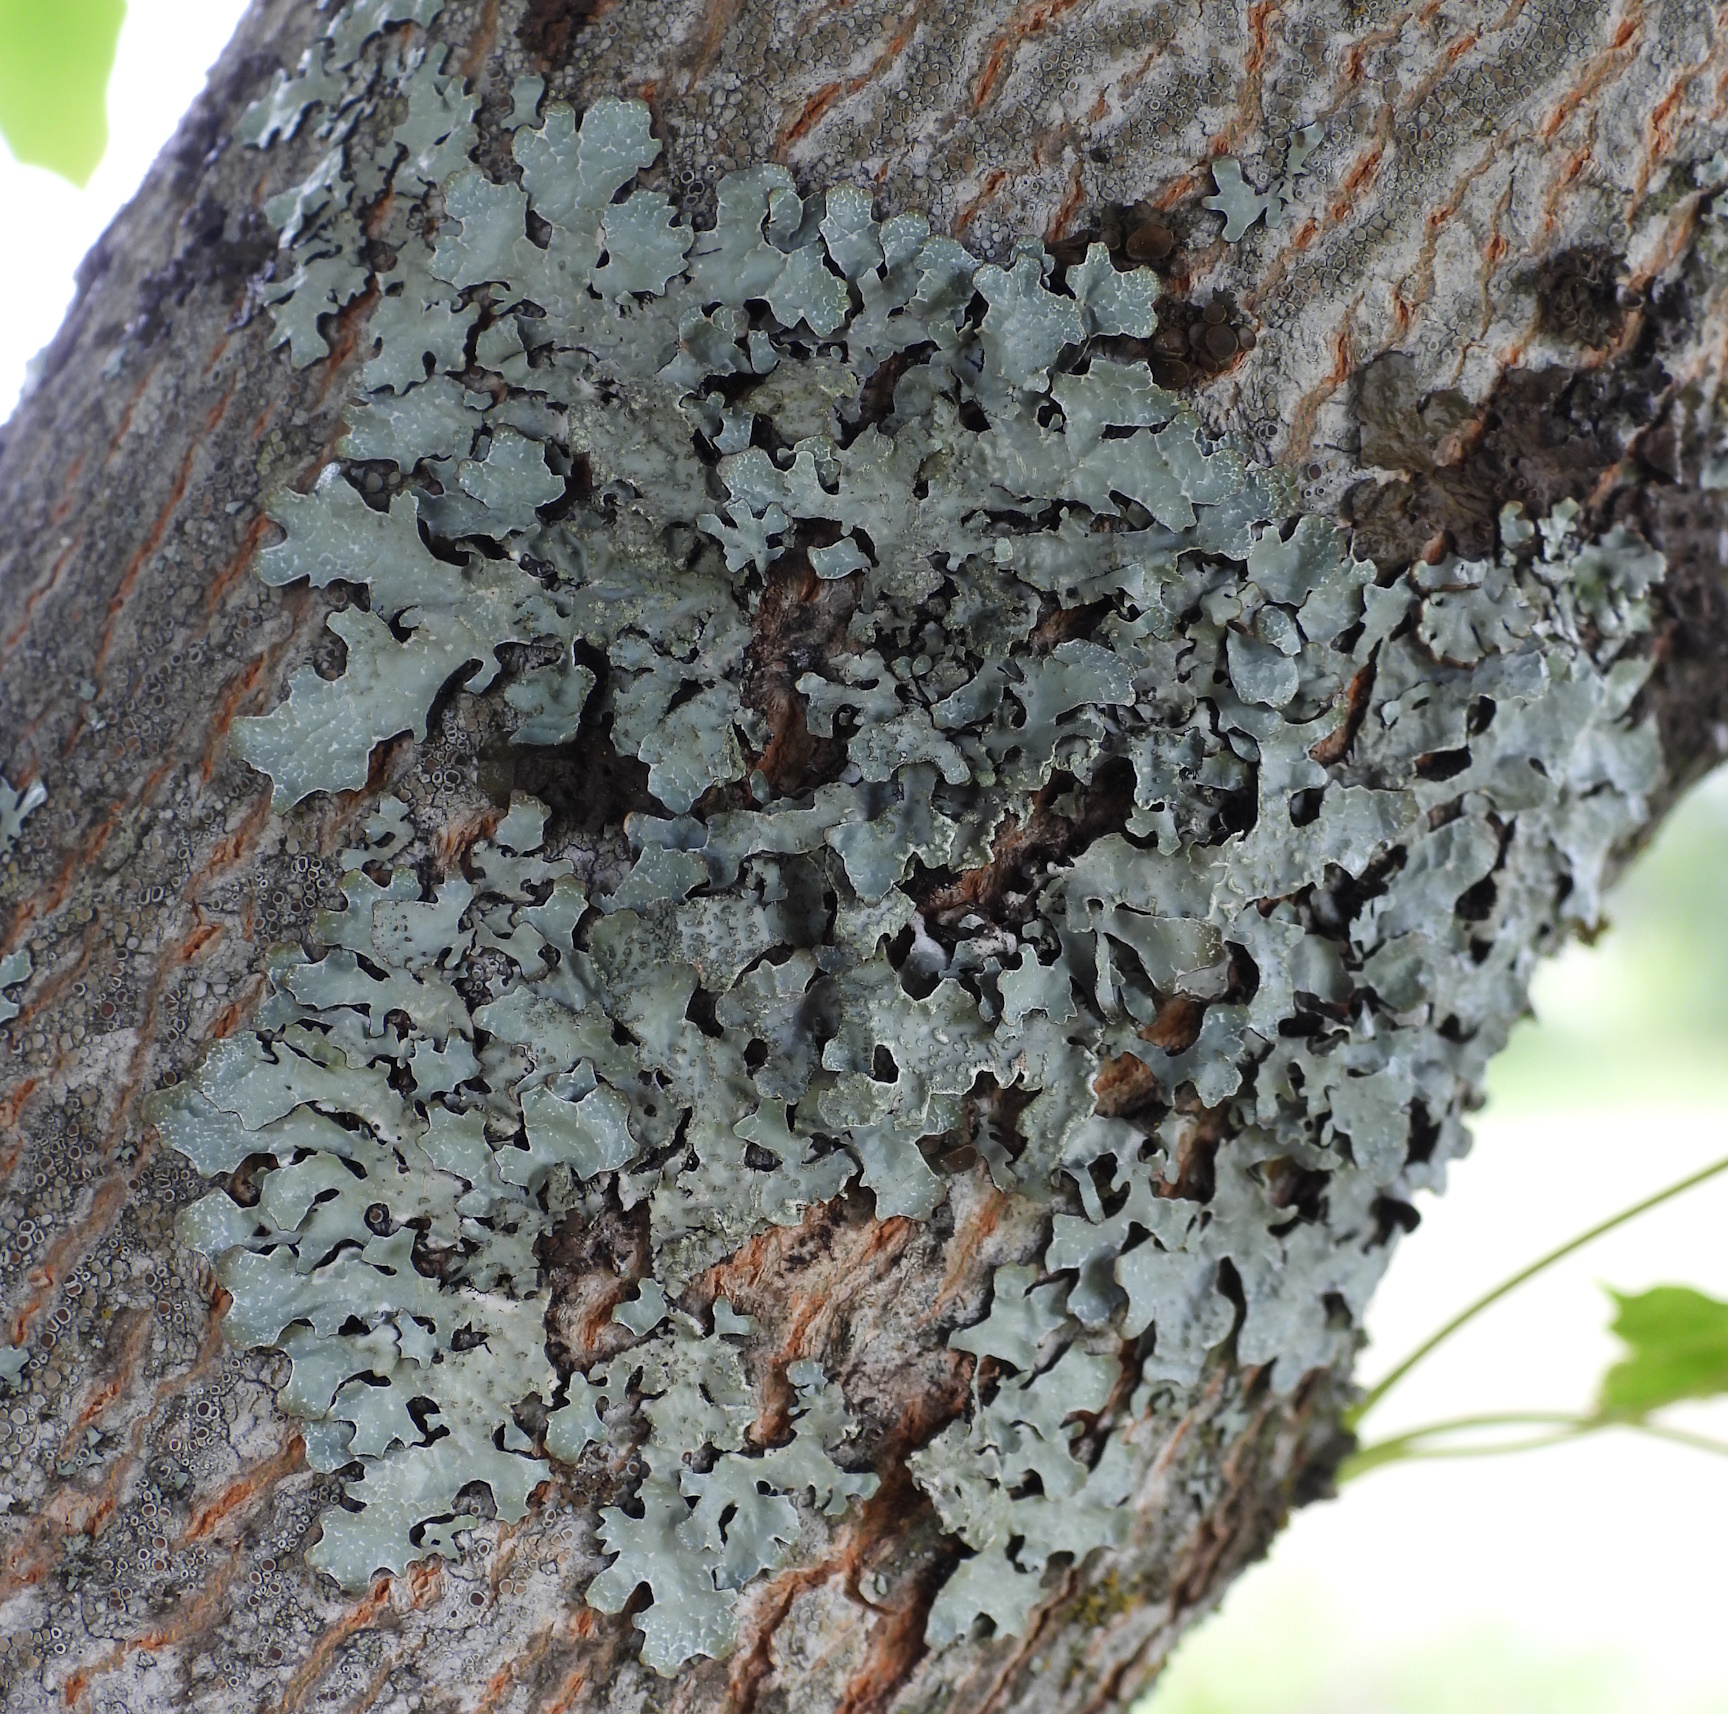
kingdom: Fungi
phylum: Ascomycota
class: Lecanoromycetes
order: Lecanorales
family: Parmeliaceae
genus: Parmelia
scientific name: Parmelia sulcata
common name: Netted shield lichen
